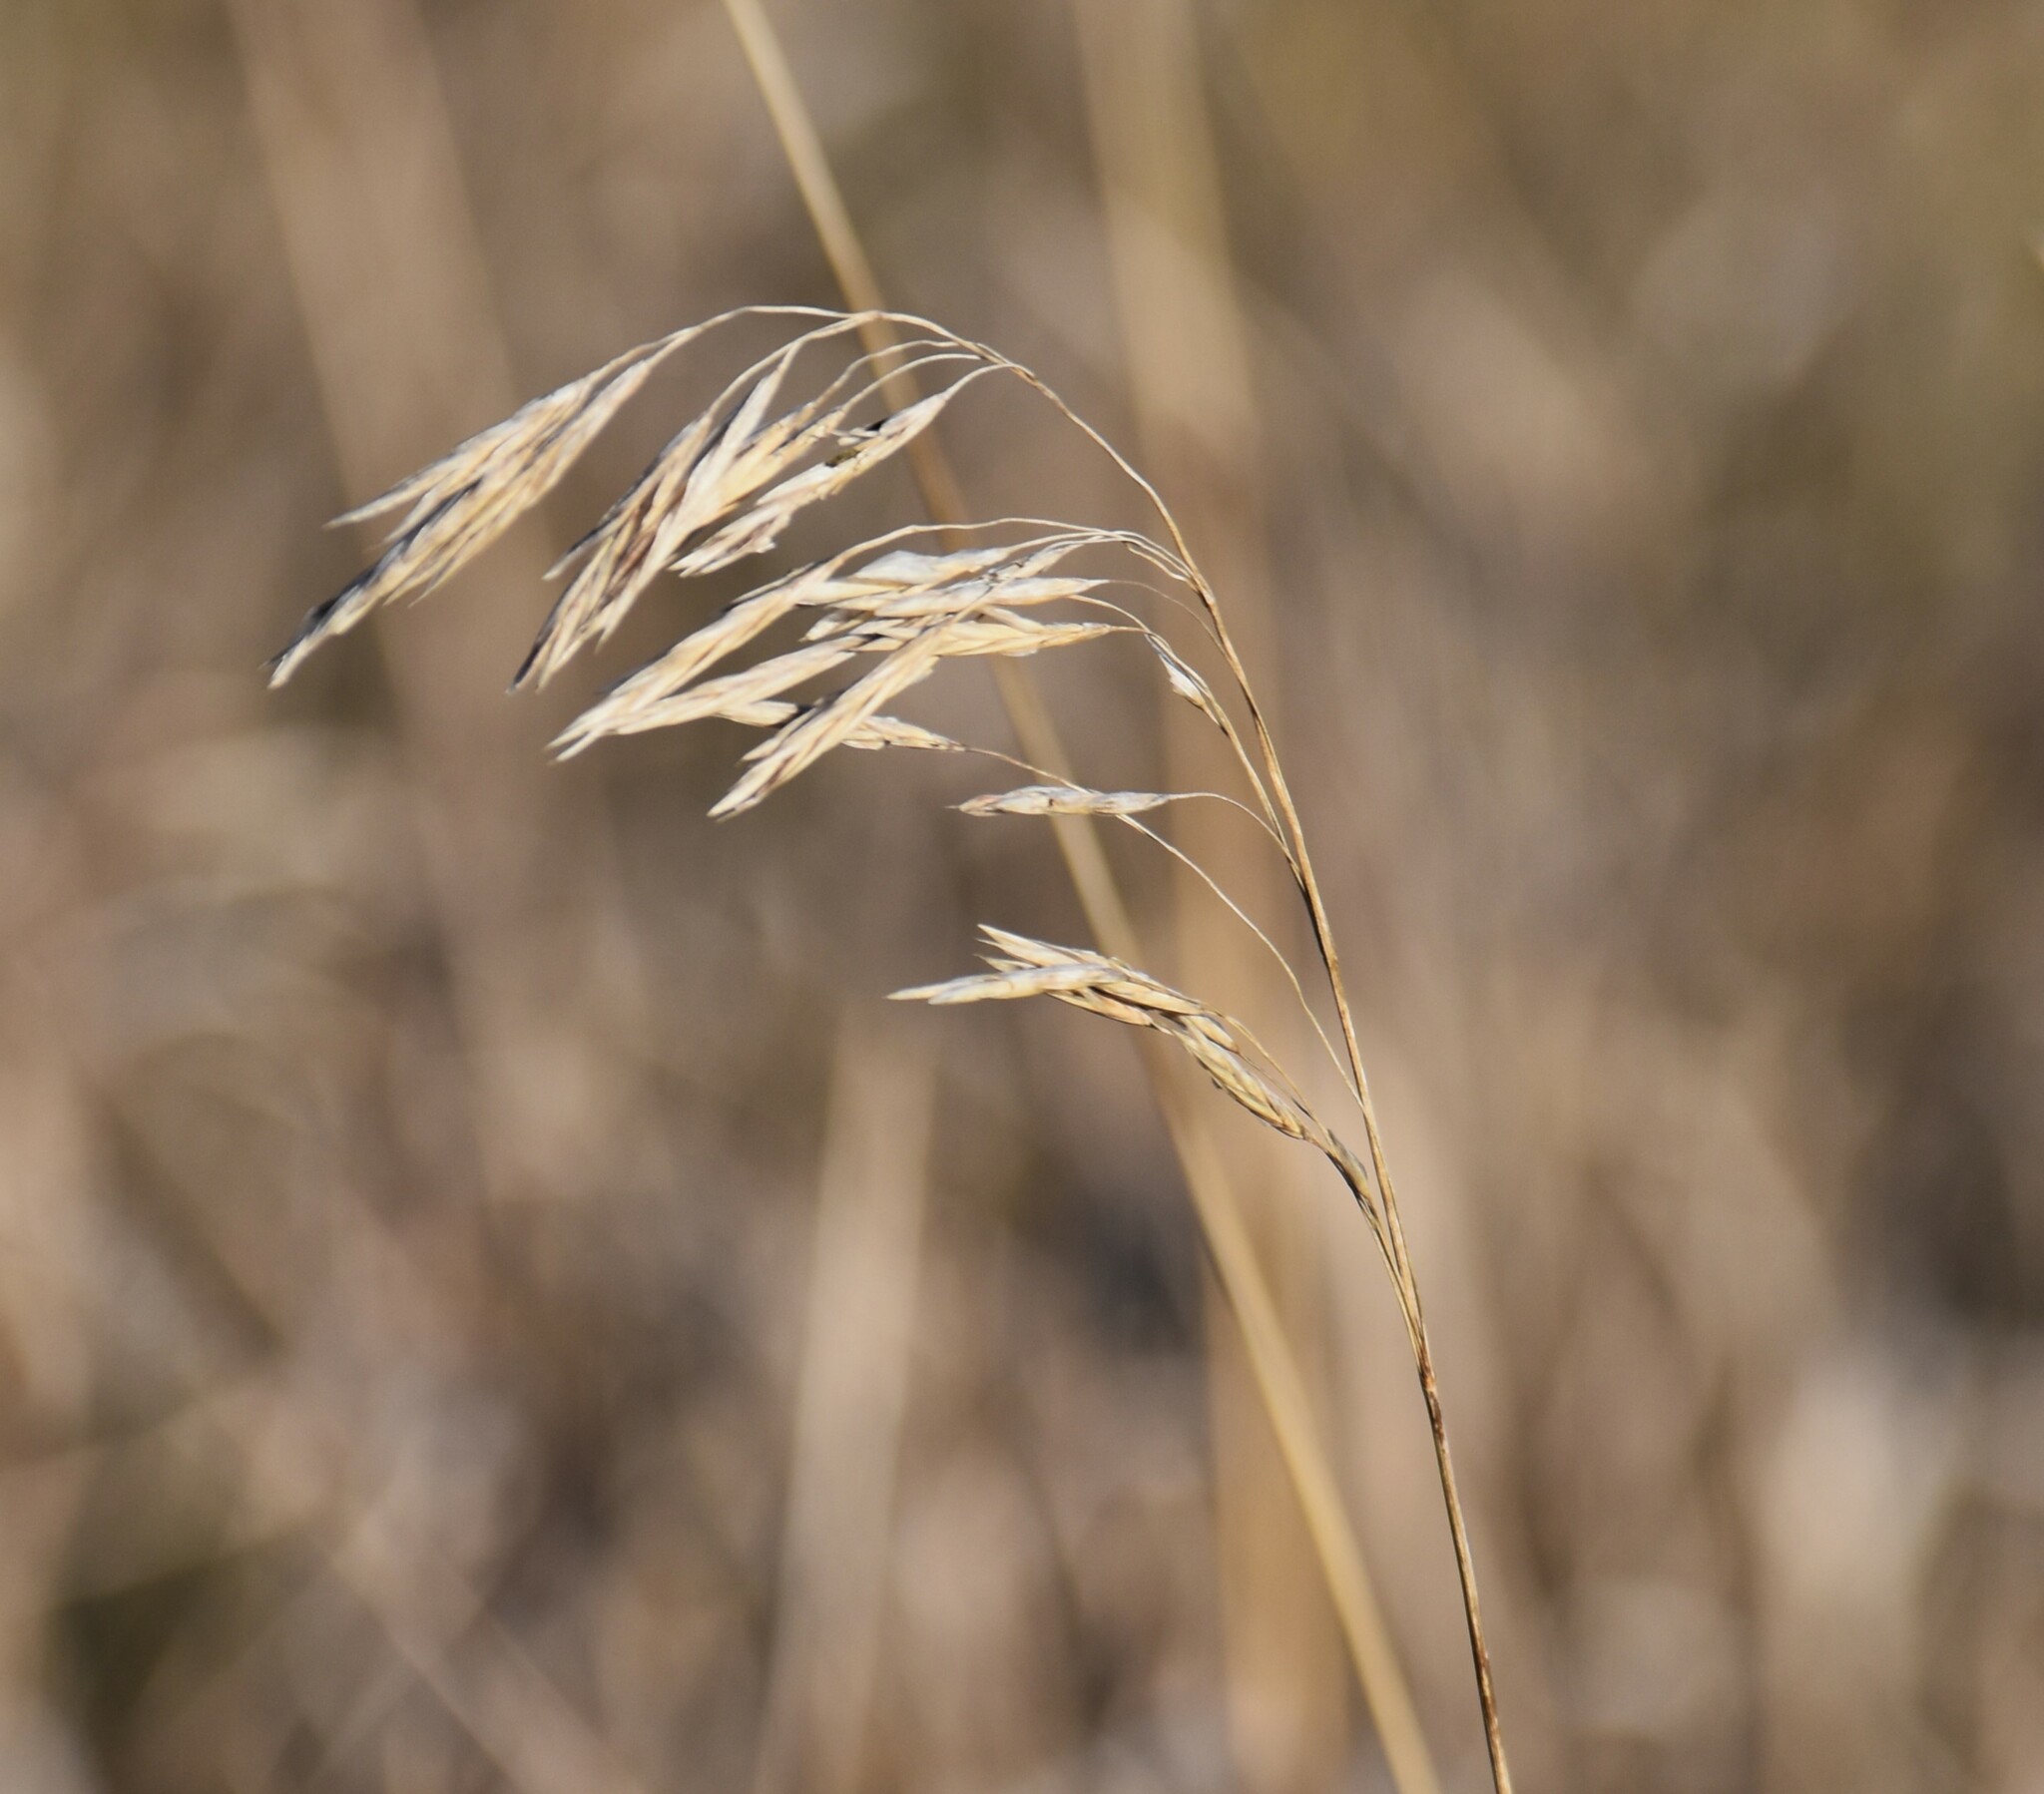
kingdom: Plantae
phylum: Tracheophyta
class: Liliopsida
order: Poales
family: Poaceae
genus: Bromus
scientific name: Bromus inermis
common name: Smooth brome
